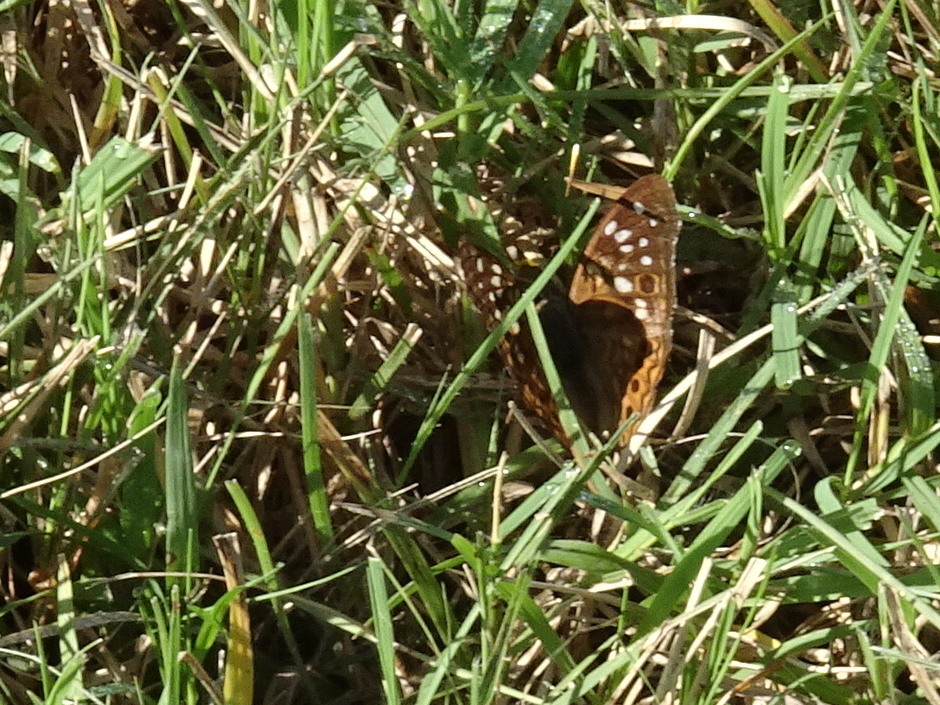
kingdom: Animalia
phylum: Arthropoda
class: Insecta
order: Lepidoptera
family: Nymphalidae
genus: Asterocampa
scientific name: Asterocampa celtis
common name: Hackberry emperor
